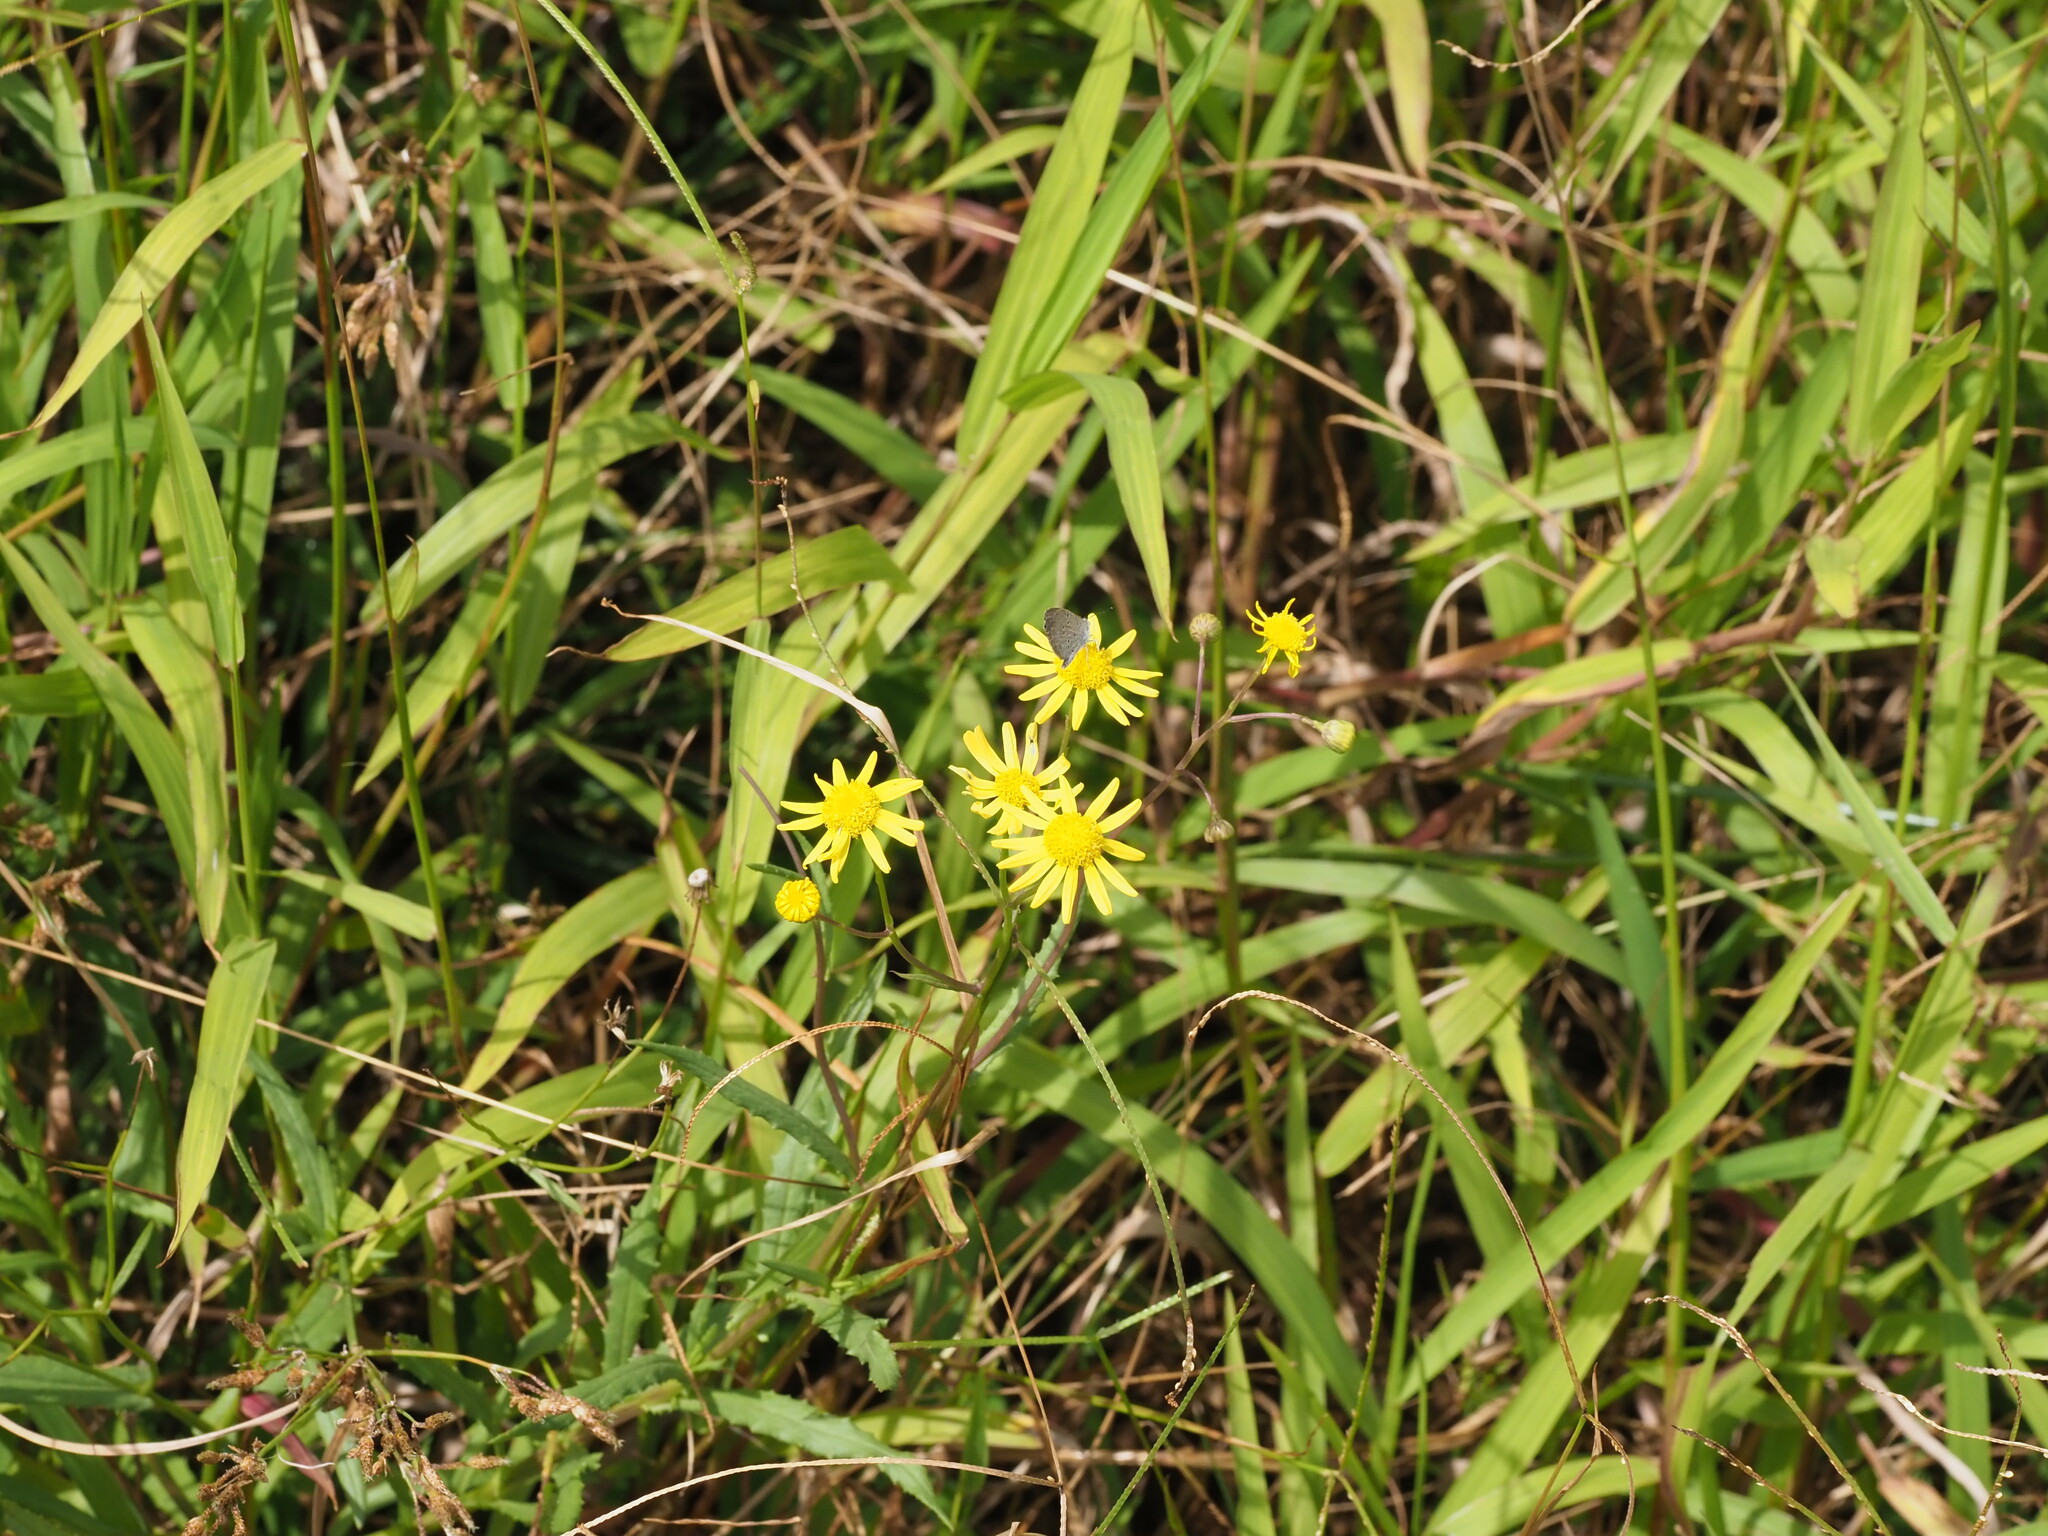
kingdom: Plantae
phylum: Tracheophyta
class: Magnoliopsida
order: Asterales
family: Asteraceae
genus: Senecio
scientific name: Senecio madagascariensis
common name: Madagascar ragwort
